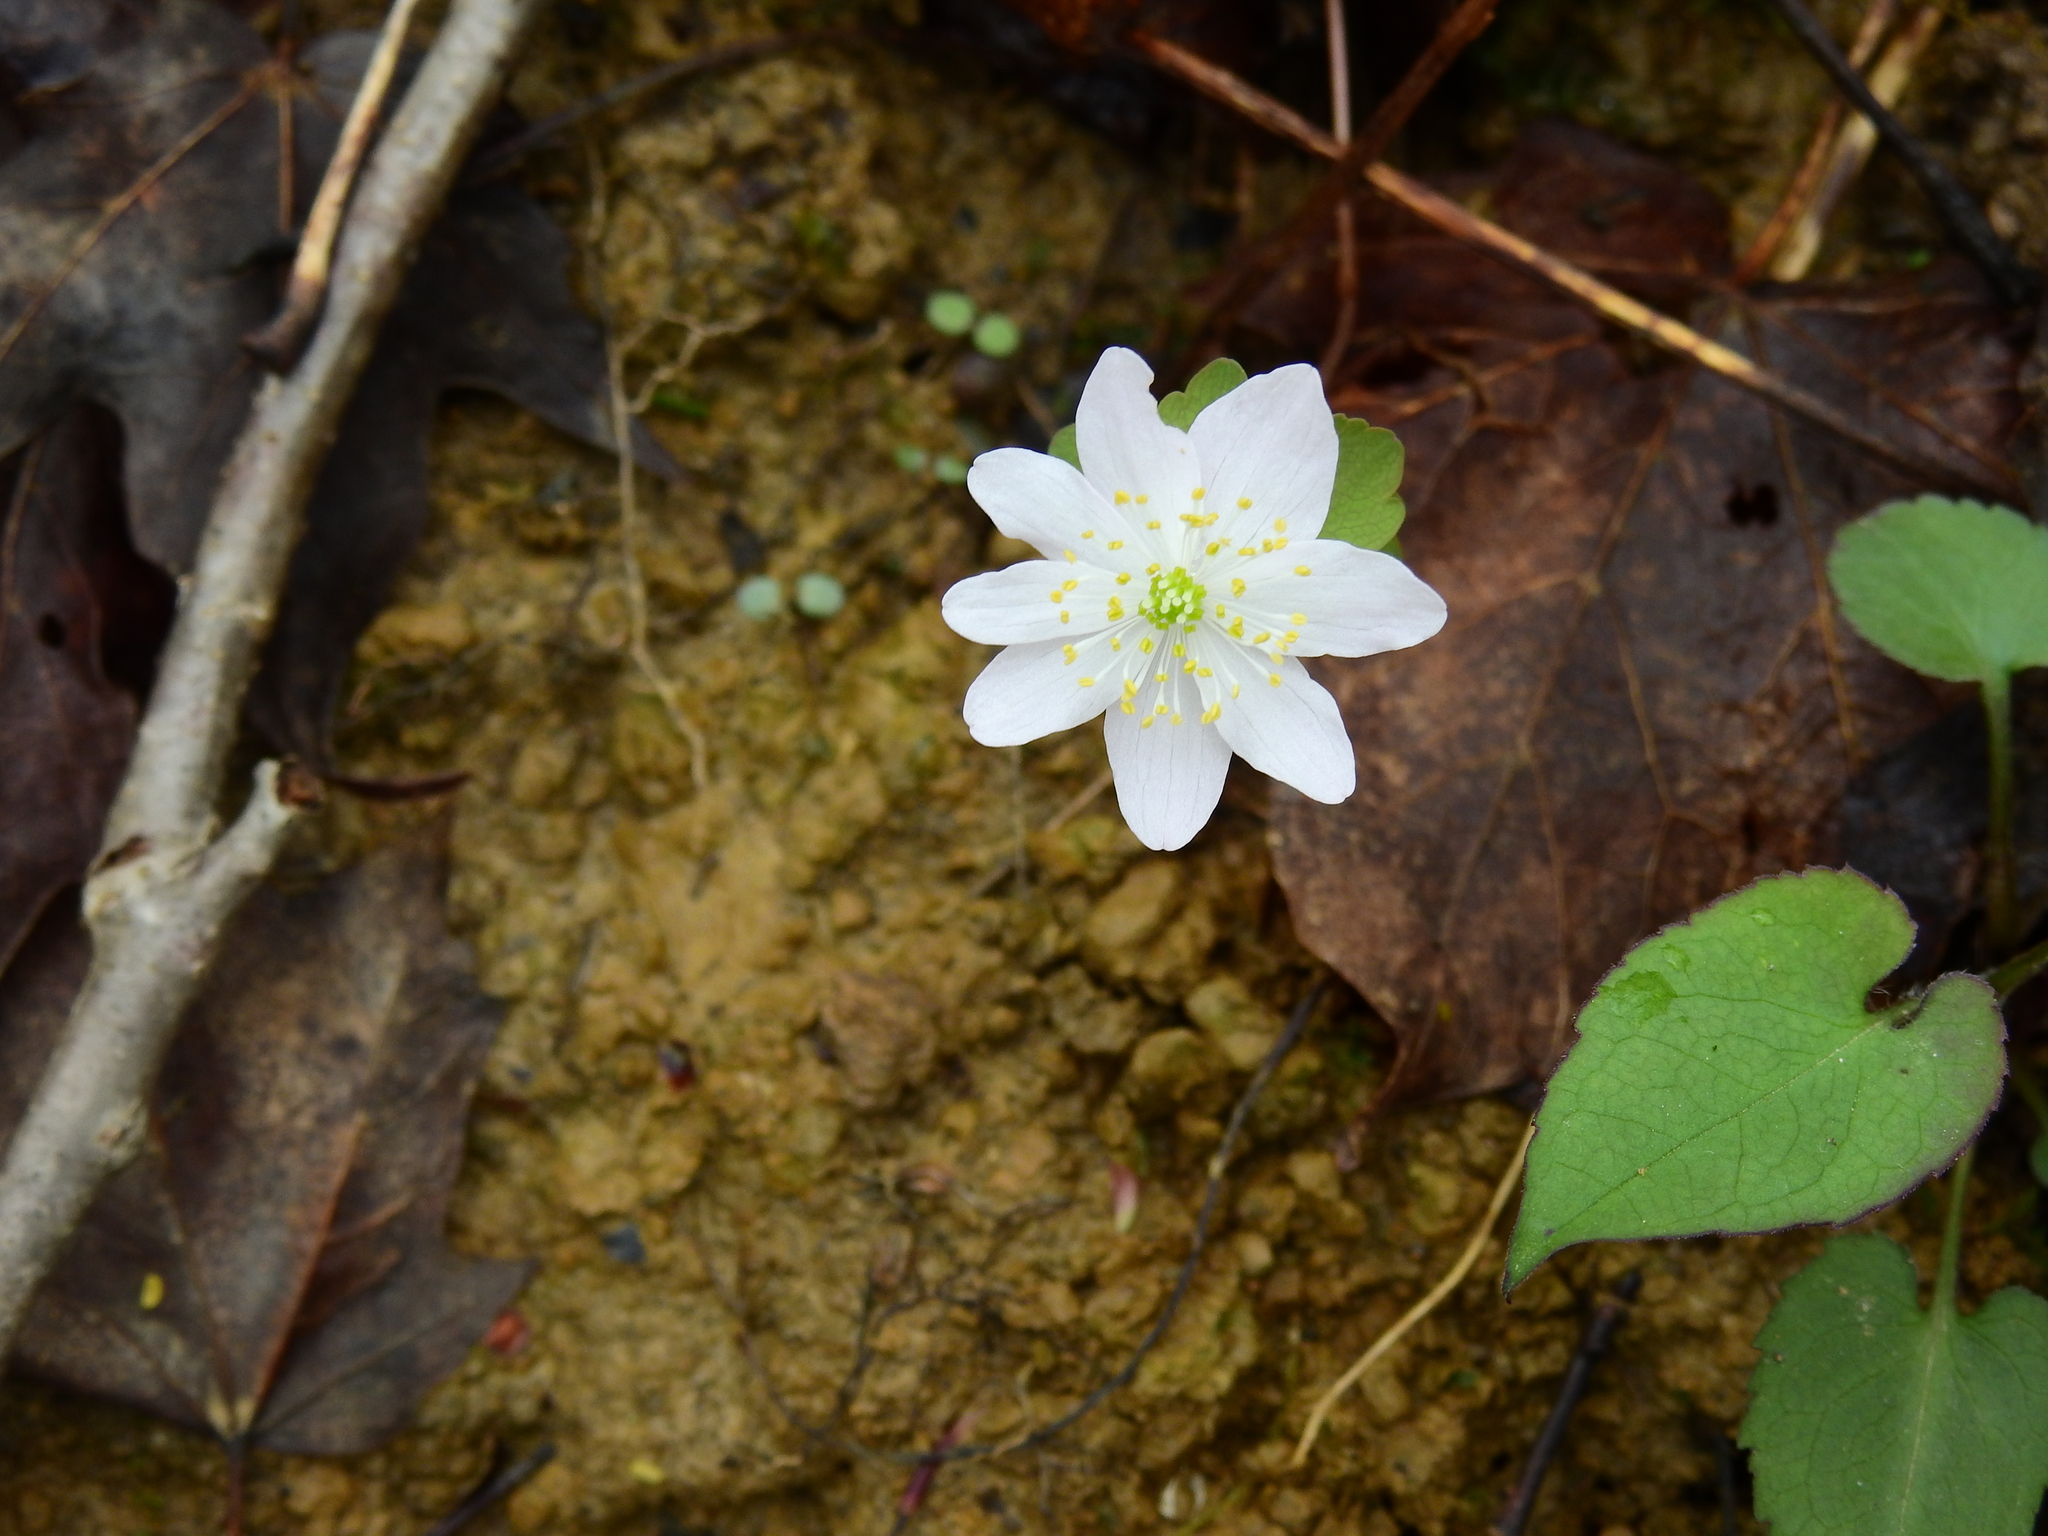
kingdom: Plantae
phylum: Tracheophyta
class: Magnoliopsida
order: Ranunculales
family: Ranunculaceae
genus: Thalictrum
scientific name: Thalictrum thalictroides
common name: Rue-anemone
